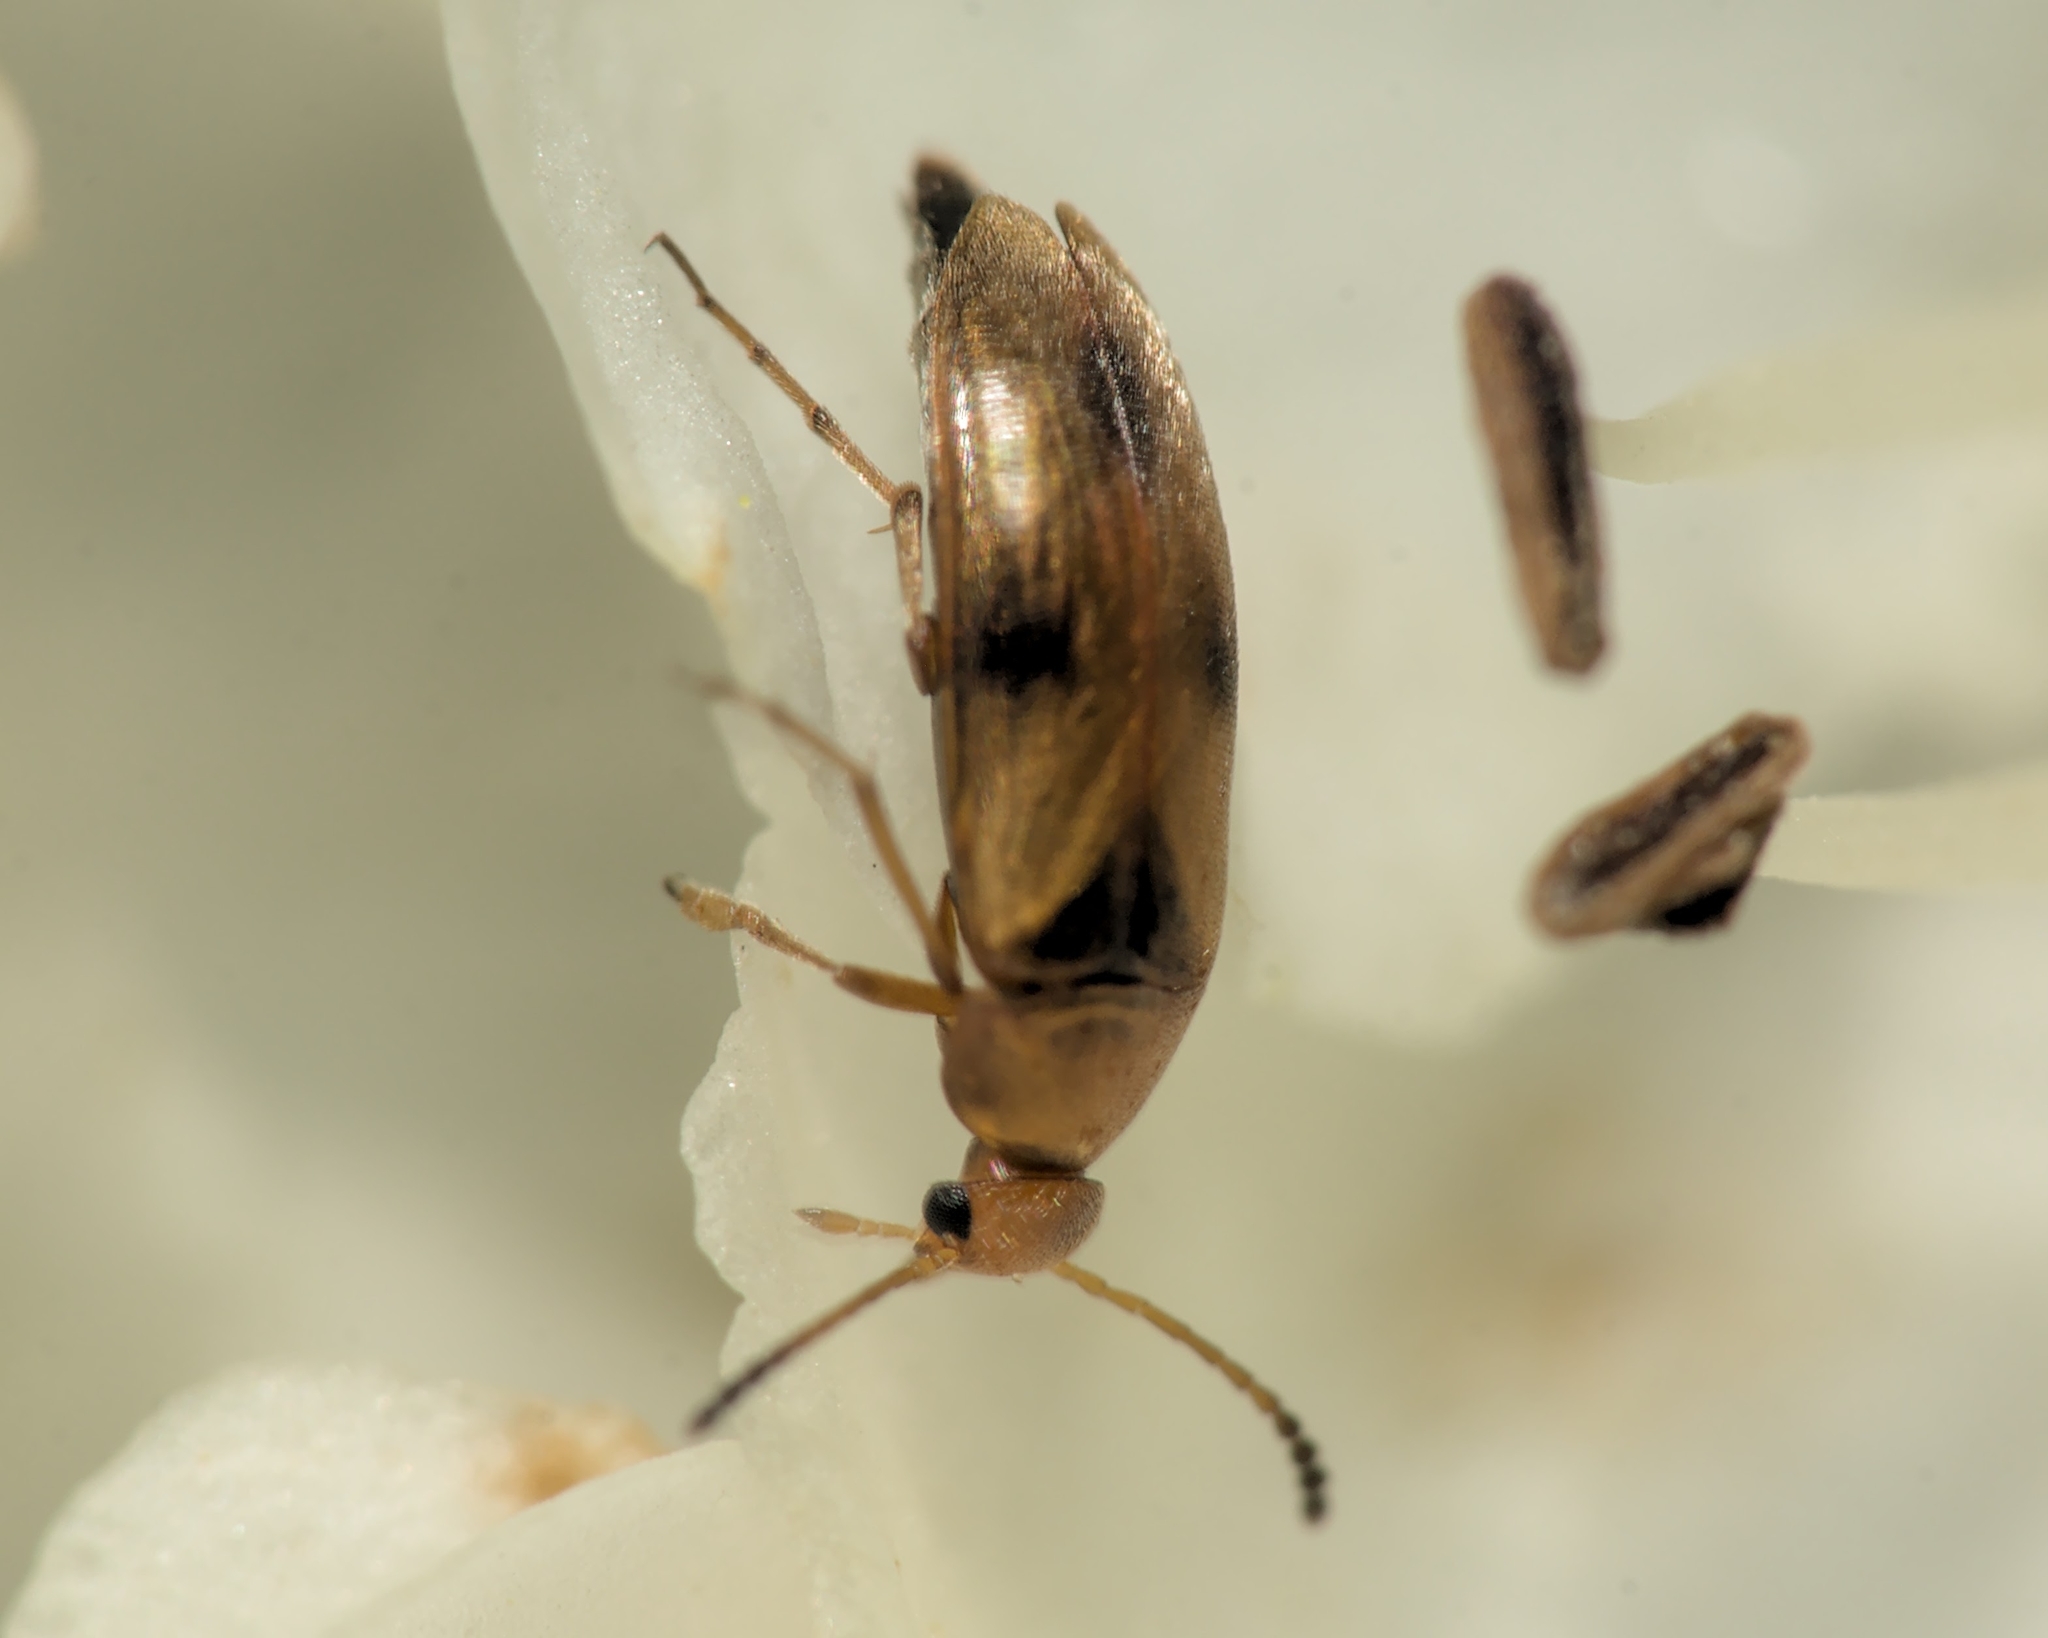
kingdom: Animalia
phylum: Arthropoda
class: Insecta
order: Coleoptera
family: Scraptiidae
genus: Anaspis
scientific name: Anaspis maculata
